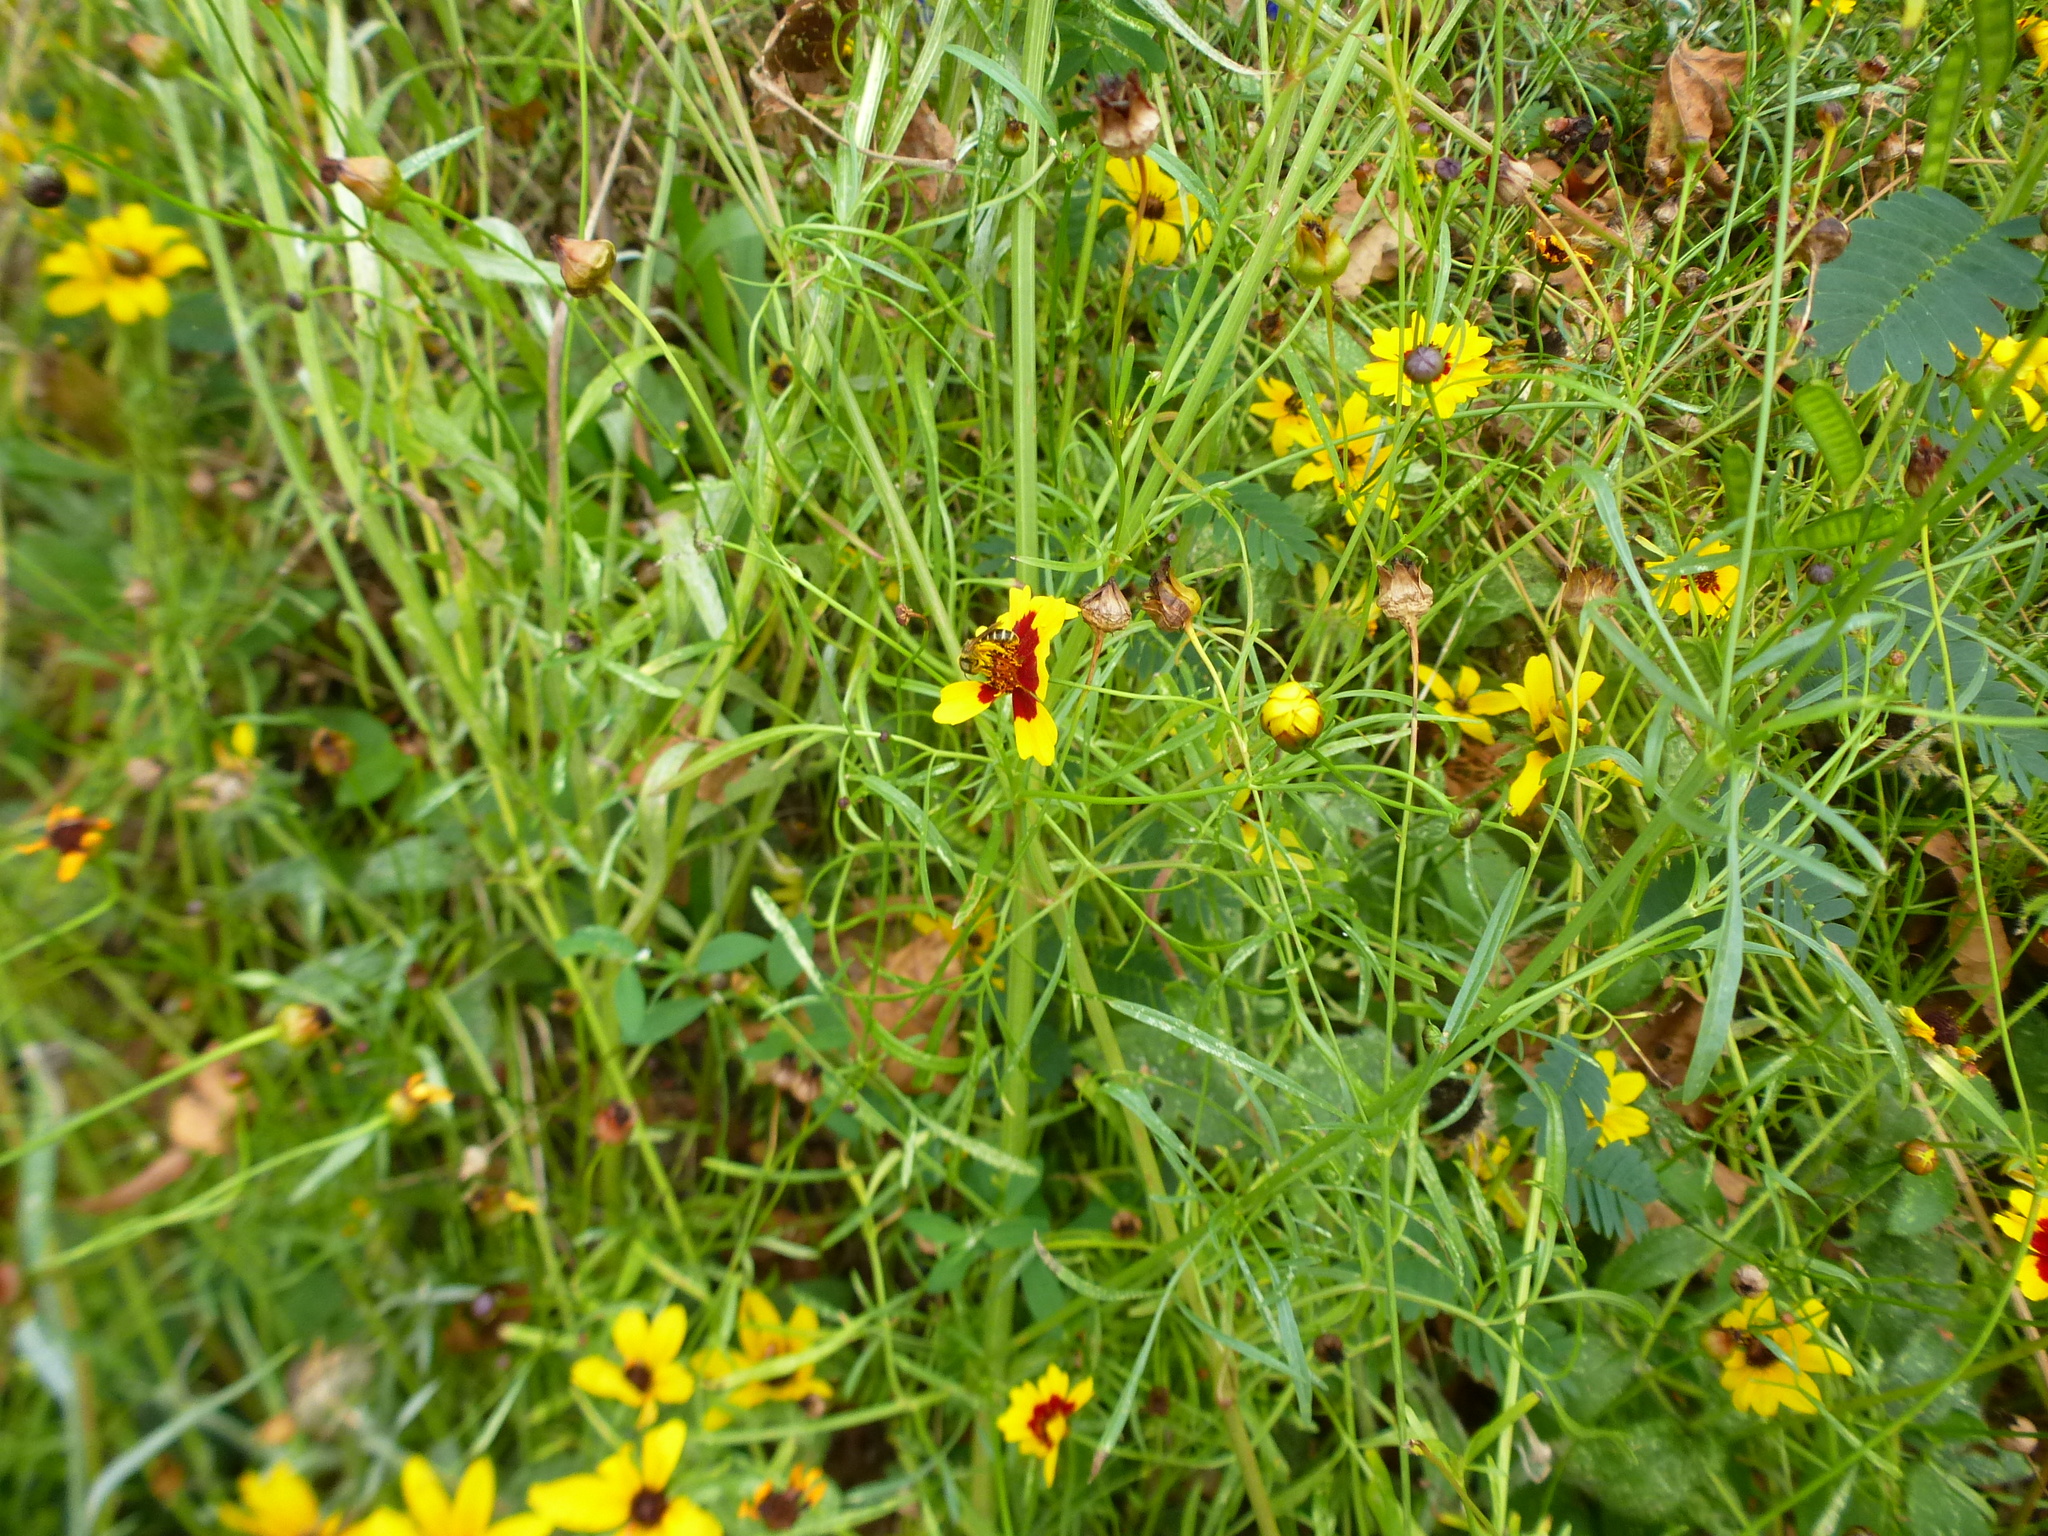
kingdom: Animalia
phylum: Arthropoda
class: Insecta
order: Hymenoptera
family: Halictidae
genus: Halictus
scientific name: Halictus ligatus
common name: Ligated furrow bee
